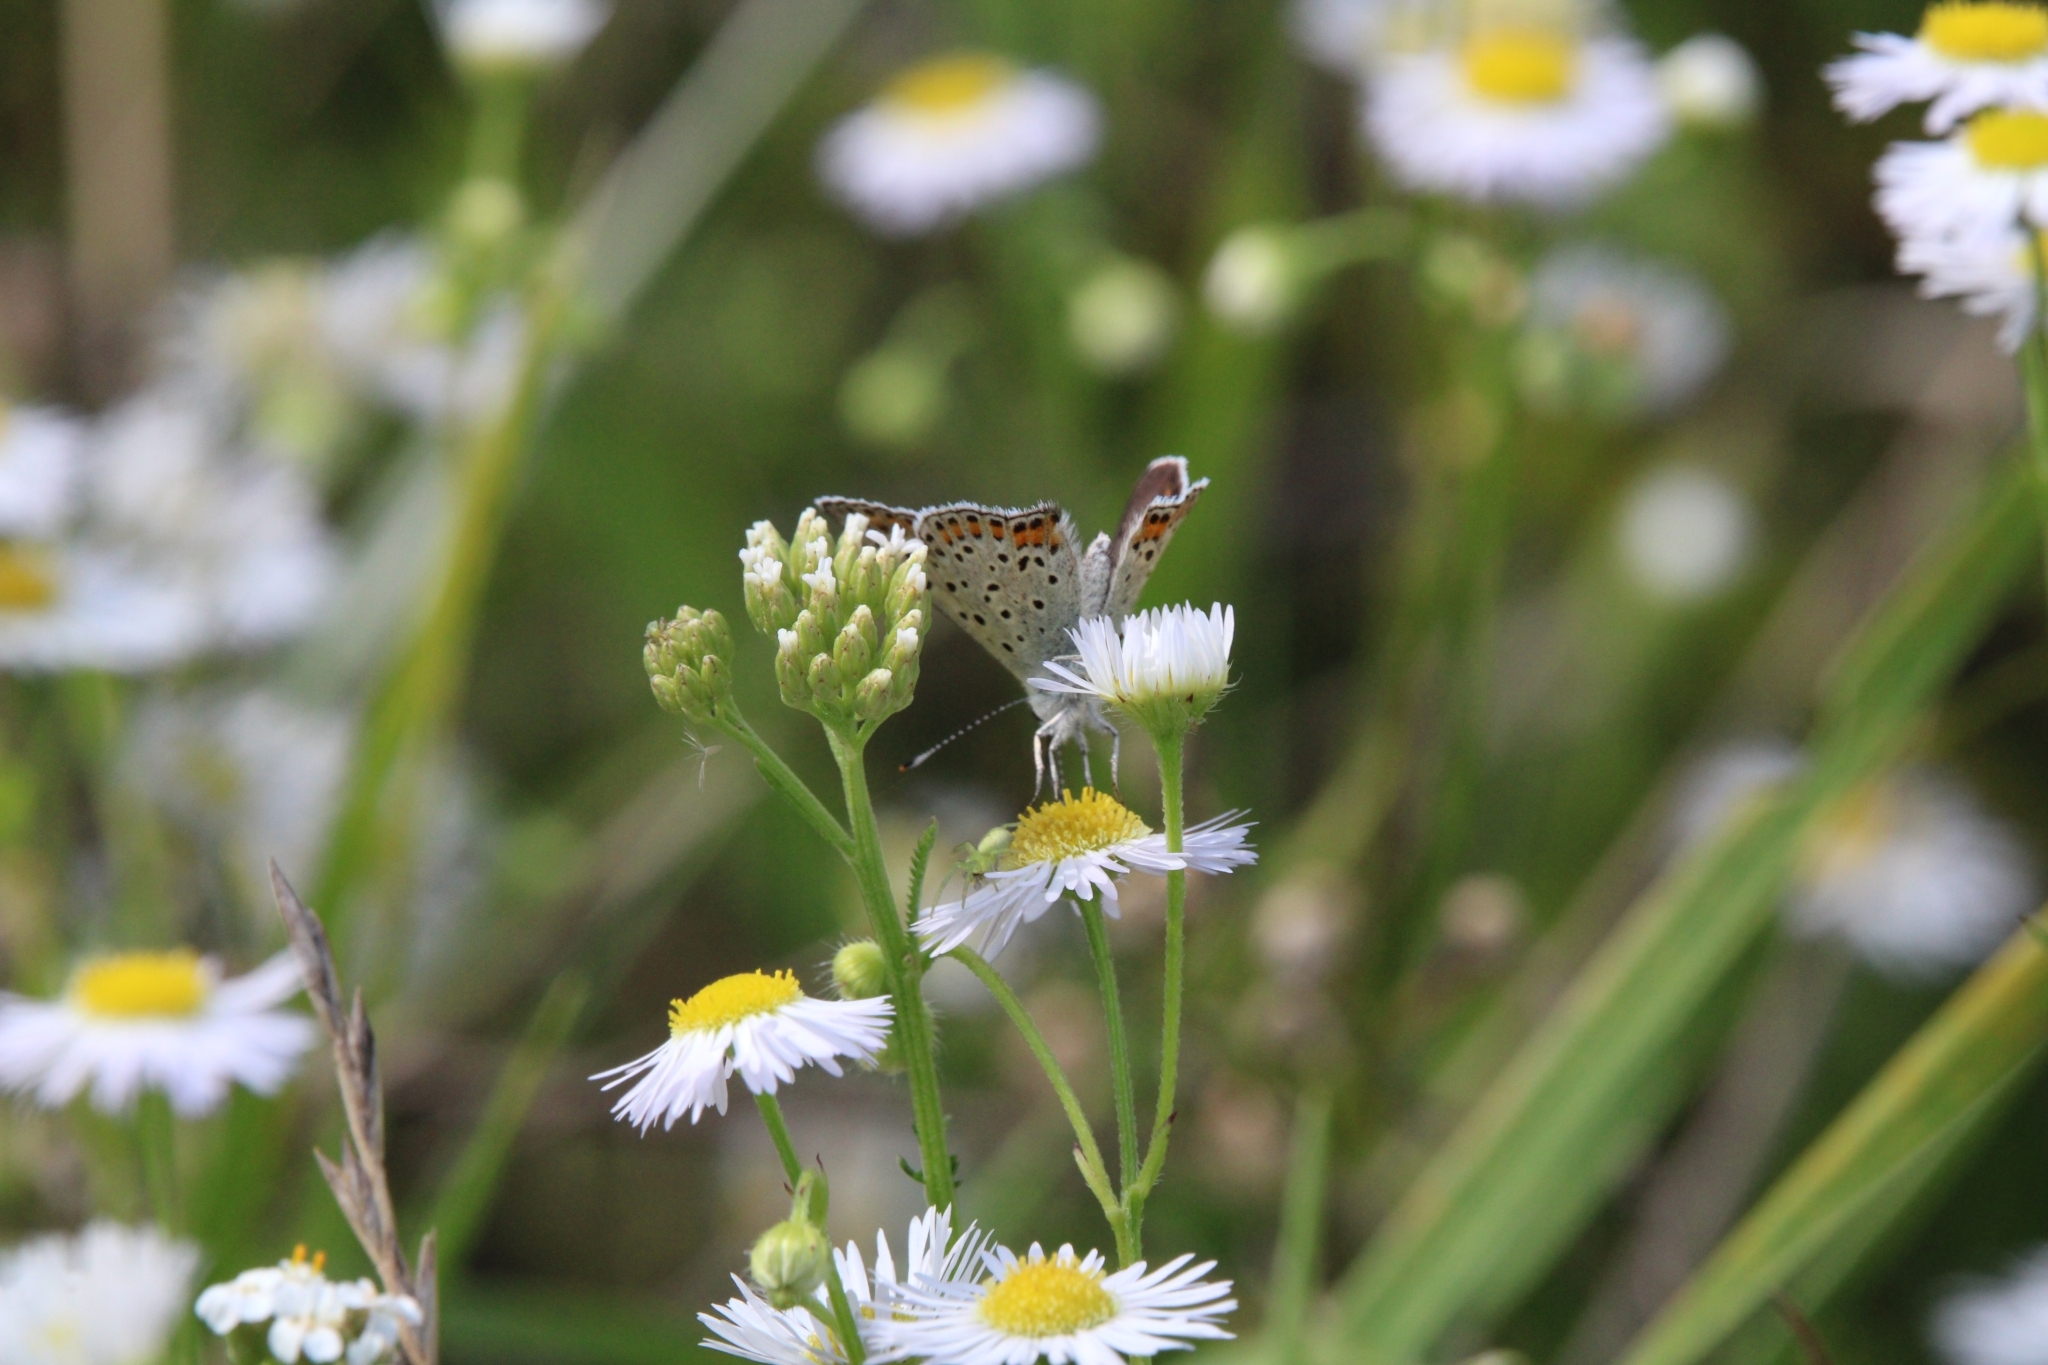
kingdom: Animalia
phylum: Arthropoda
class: Insecta
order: Lepidoptera
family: Lycaenidae
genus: Loweia
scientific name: Loweia tityrus
